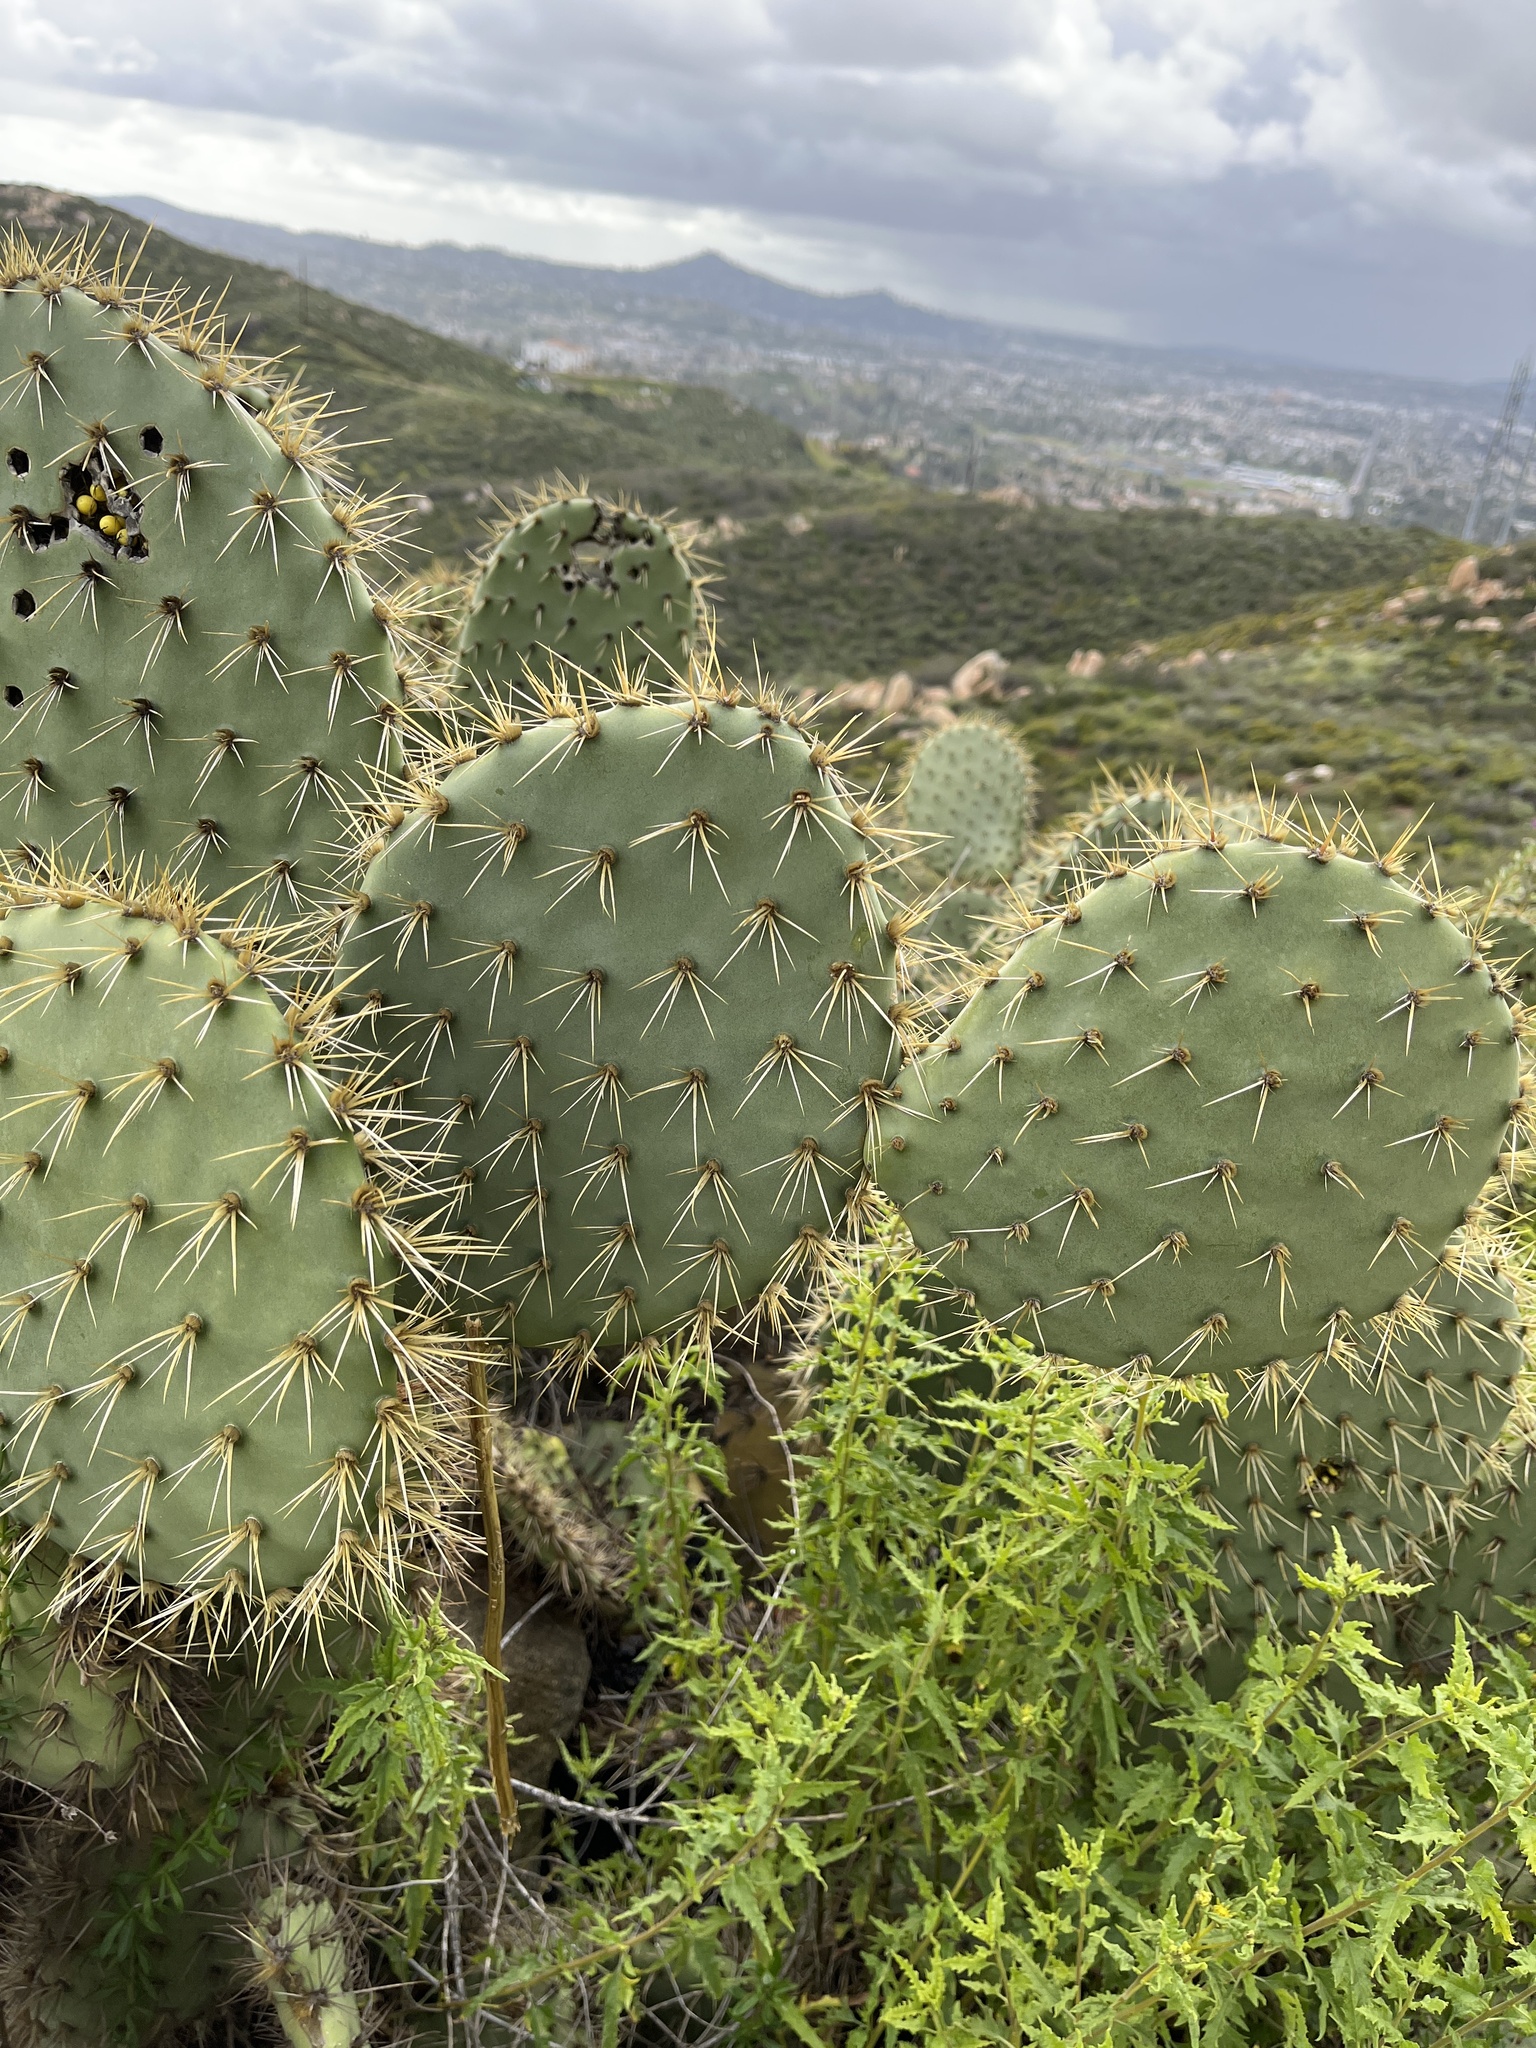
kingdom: Plantae
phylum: Tracheophyta
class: Magnoliopsida
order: Caryophyllales
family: Cactaceae
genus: Opuntia
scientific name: Opuntia oricola
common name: Chaparral prickly-pear
